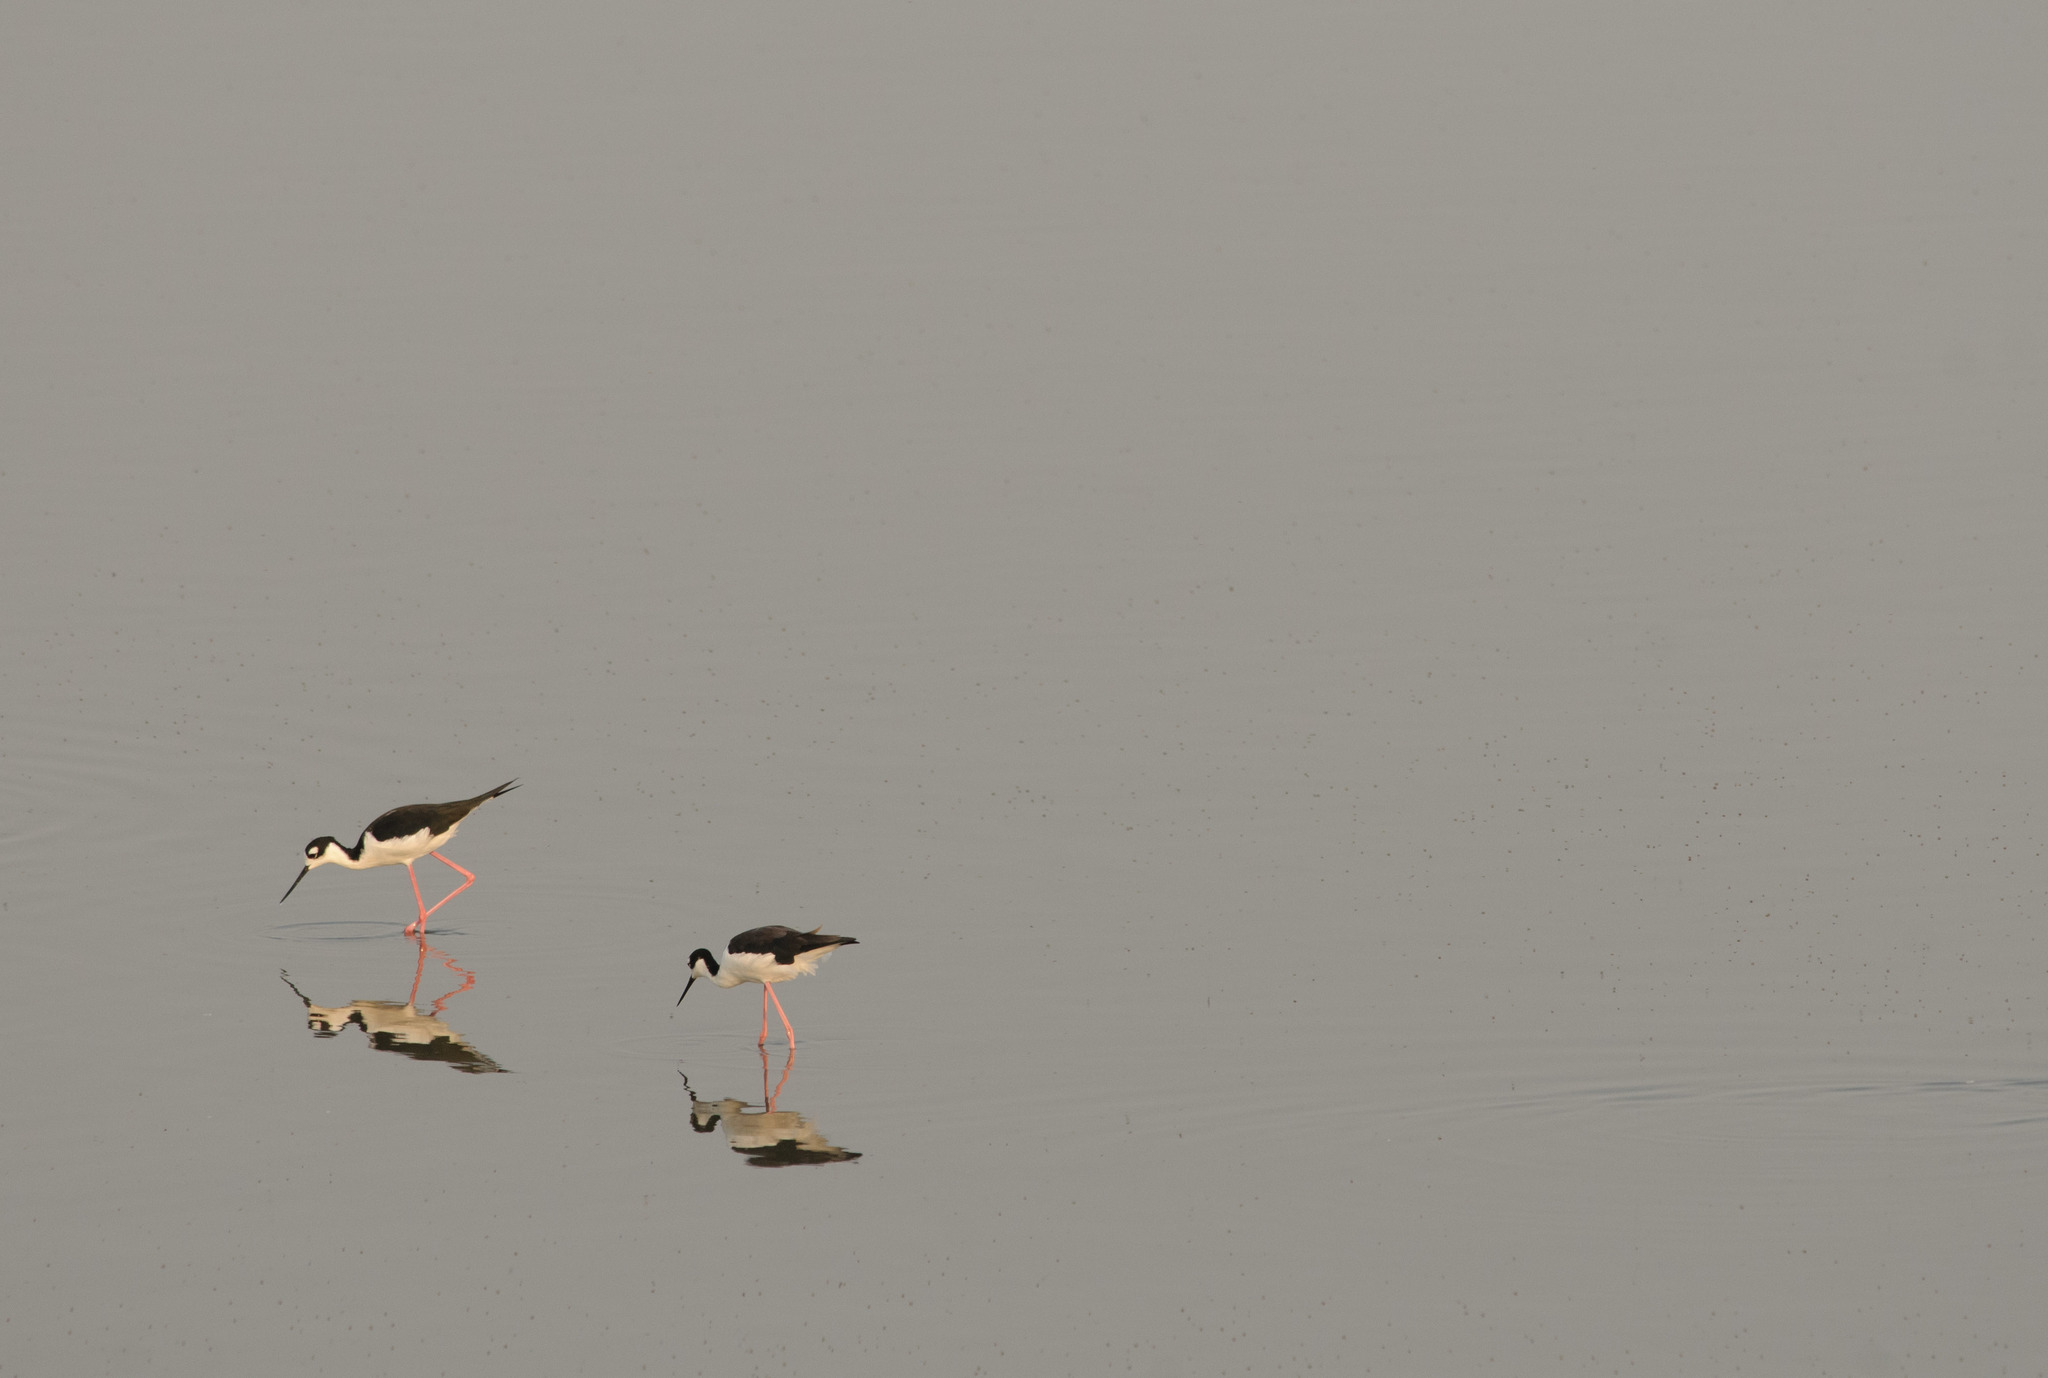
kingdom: Animalia
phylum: Chordata
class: Aves
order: Charadriiformes
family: Recurvirostridae
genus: Himantopus
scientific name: Himantopus mexicanus
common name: Black-necked stilt
